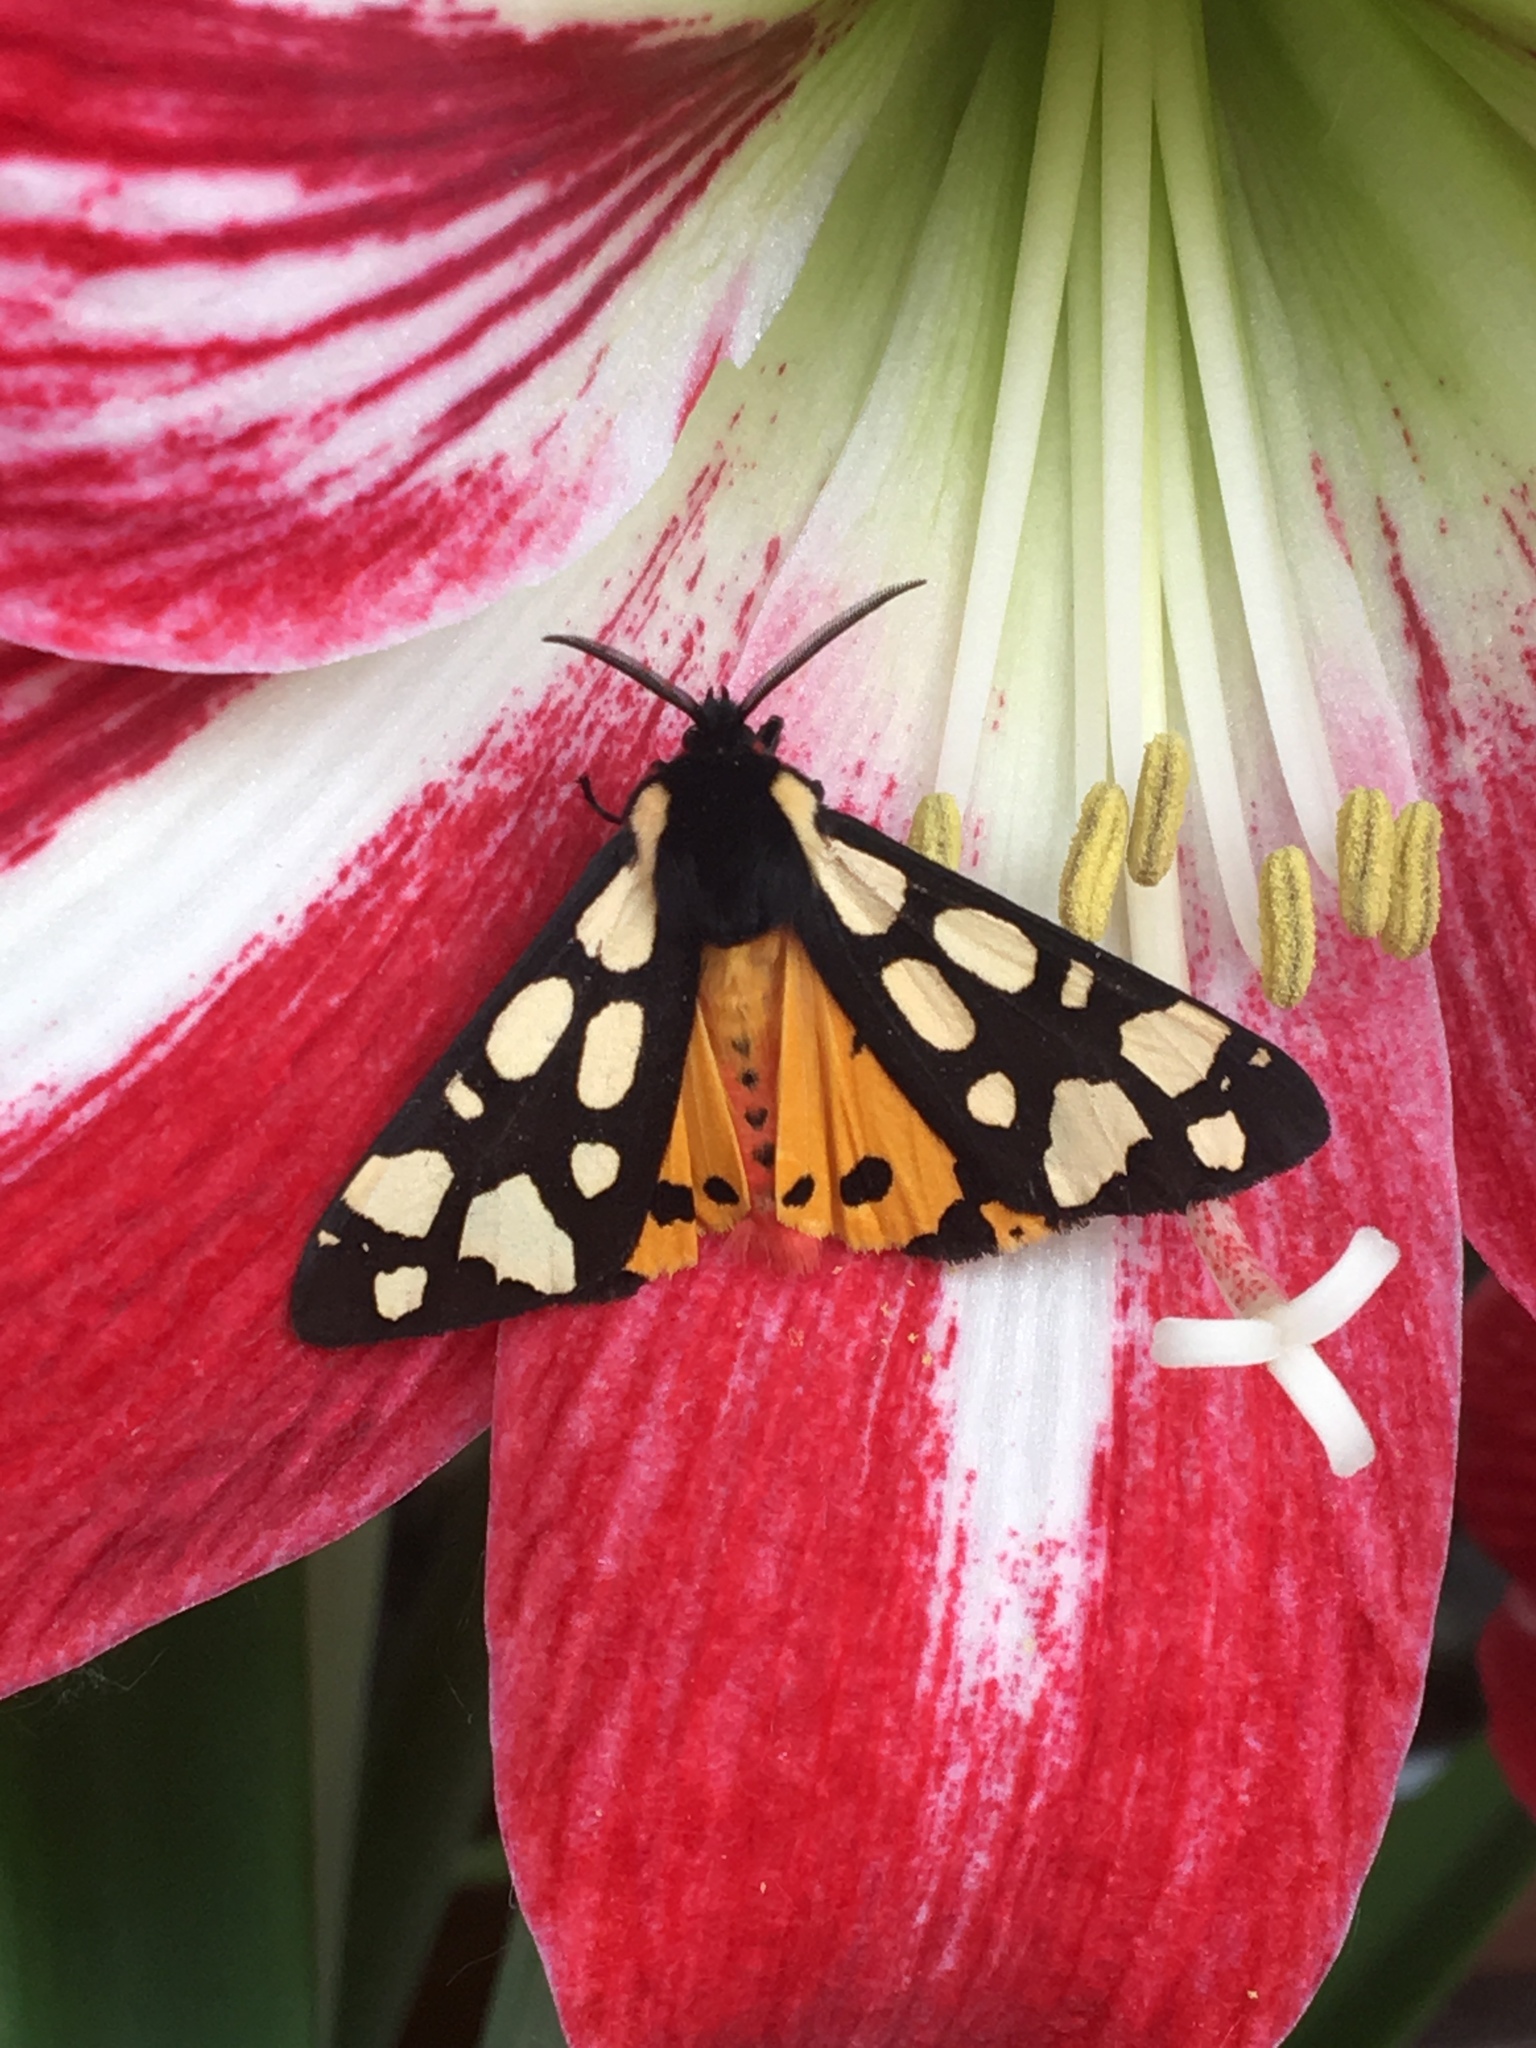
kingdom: Animalia
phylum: Arthropoda
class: Insecta
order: Lepidoptera
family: Erebidae
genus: Epicallia
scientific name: Epicallia villica
